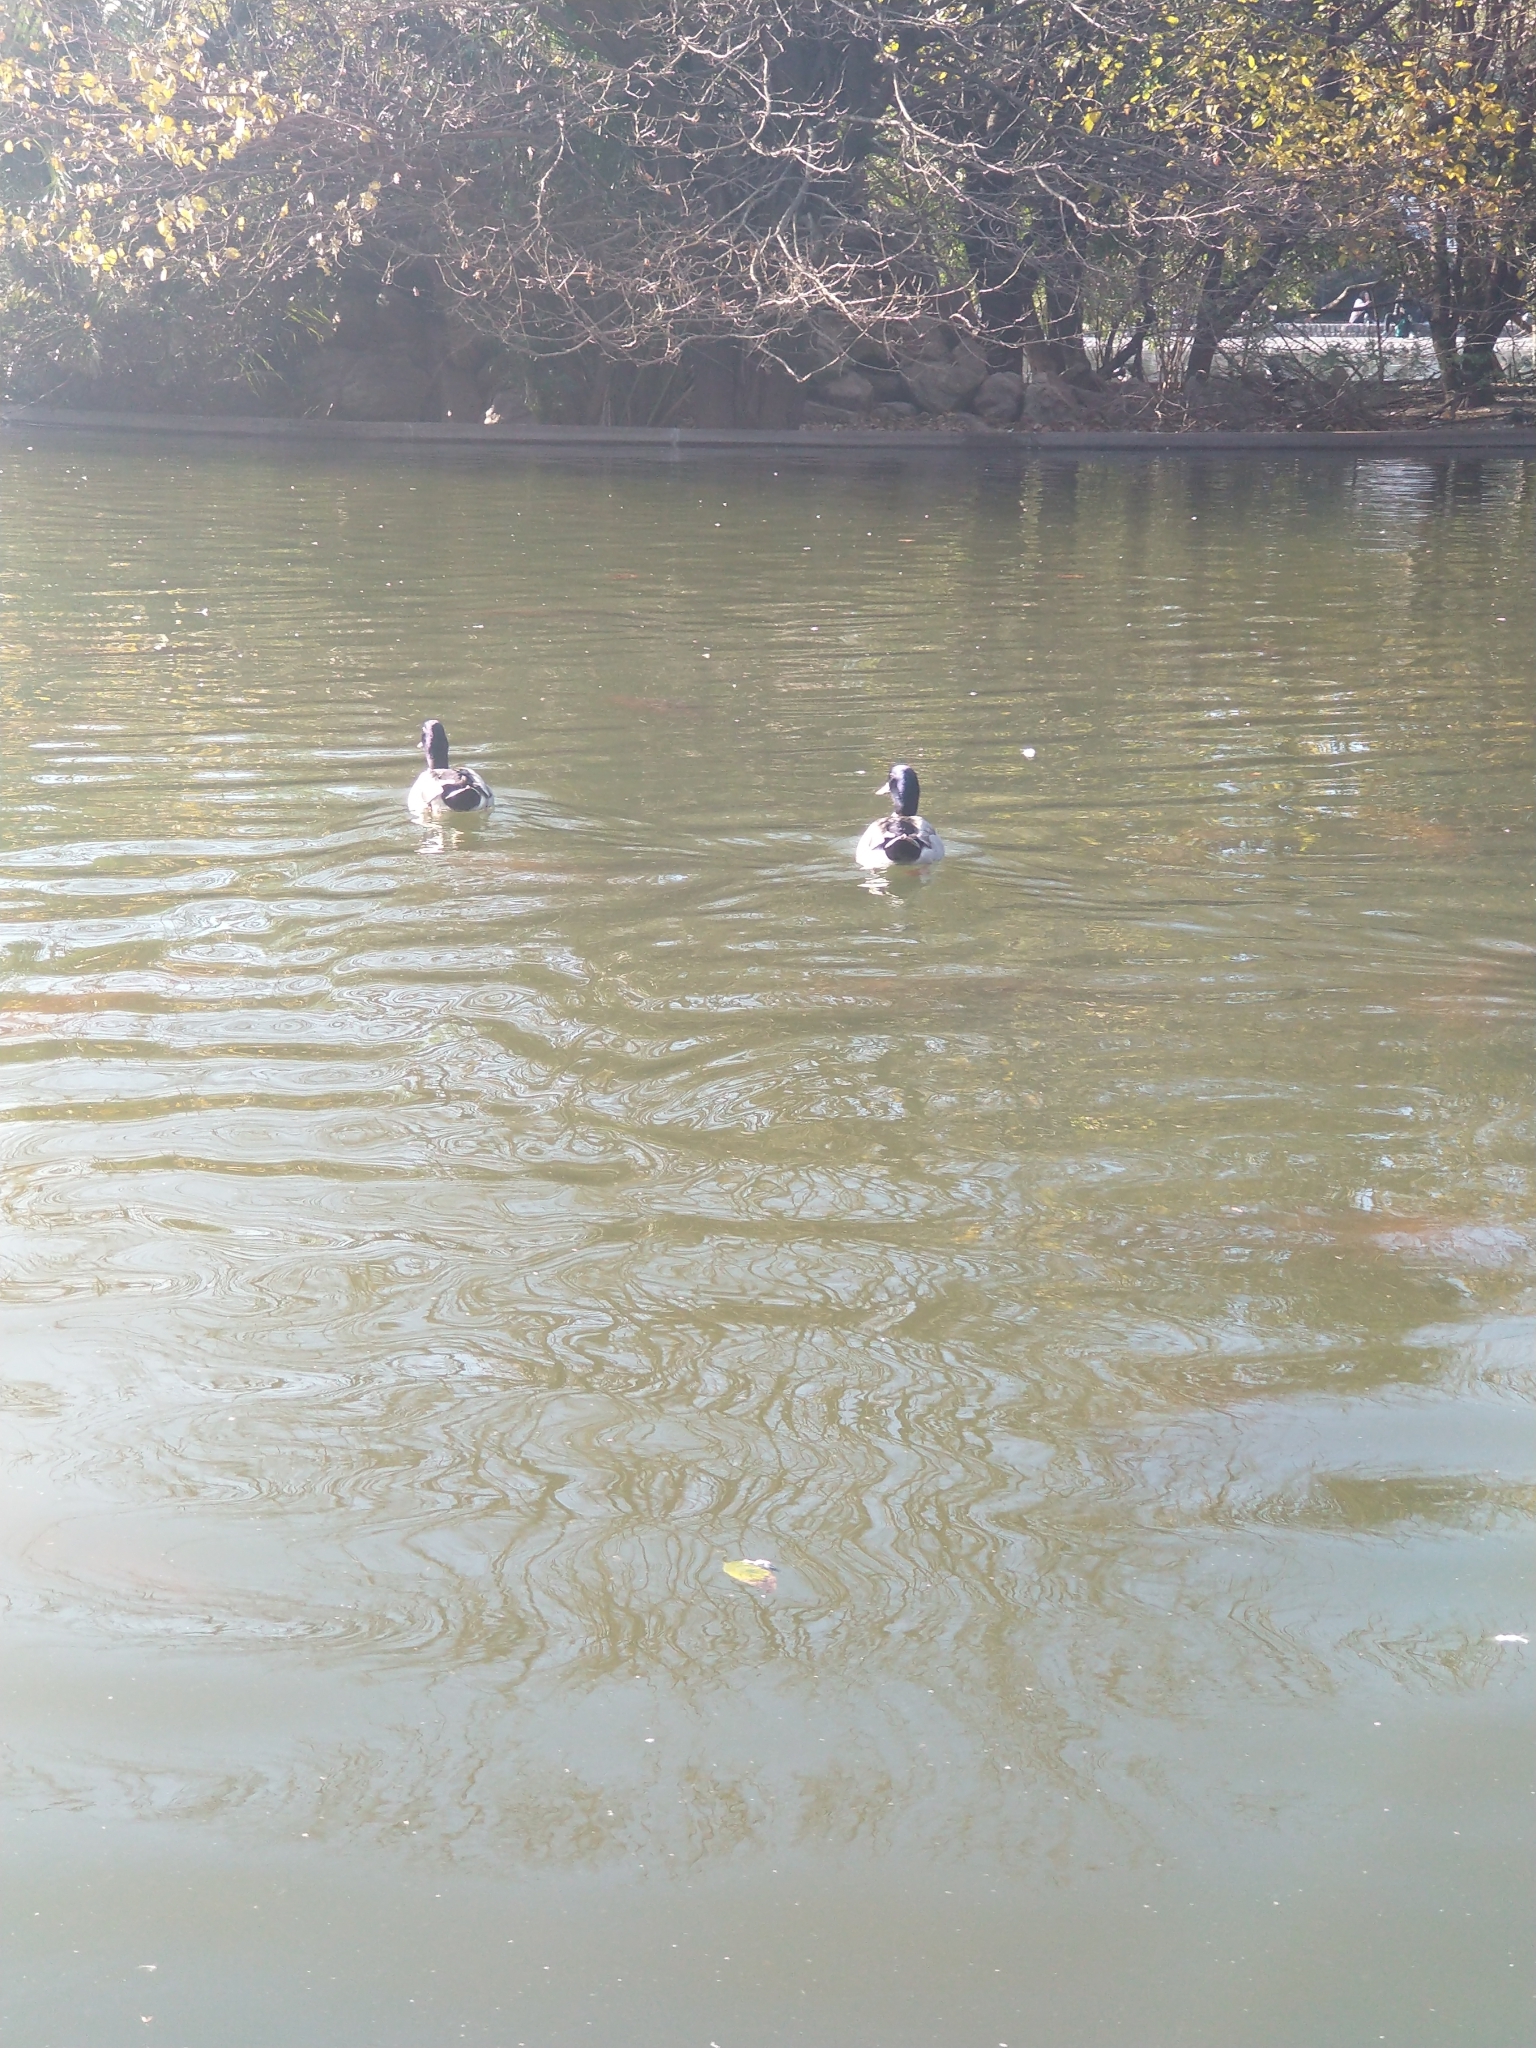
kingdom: Animalia
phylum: Chordata
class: Aves
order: Anseriformes
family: Anatidae
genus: Anas
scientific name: Anas platyrhynchos
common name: Mallard
